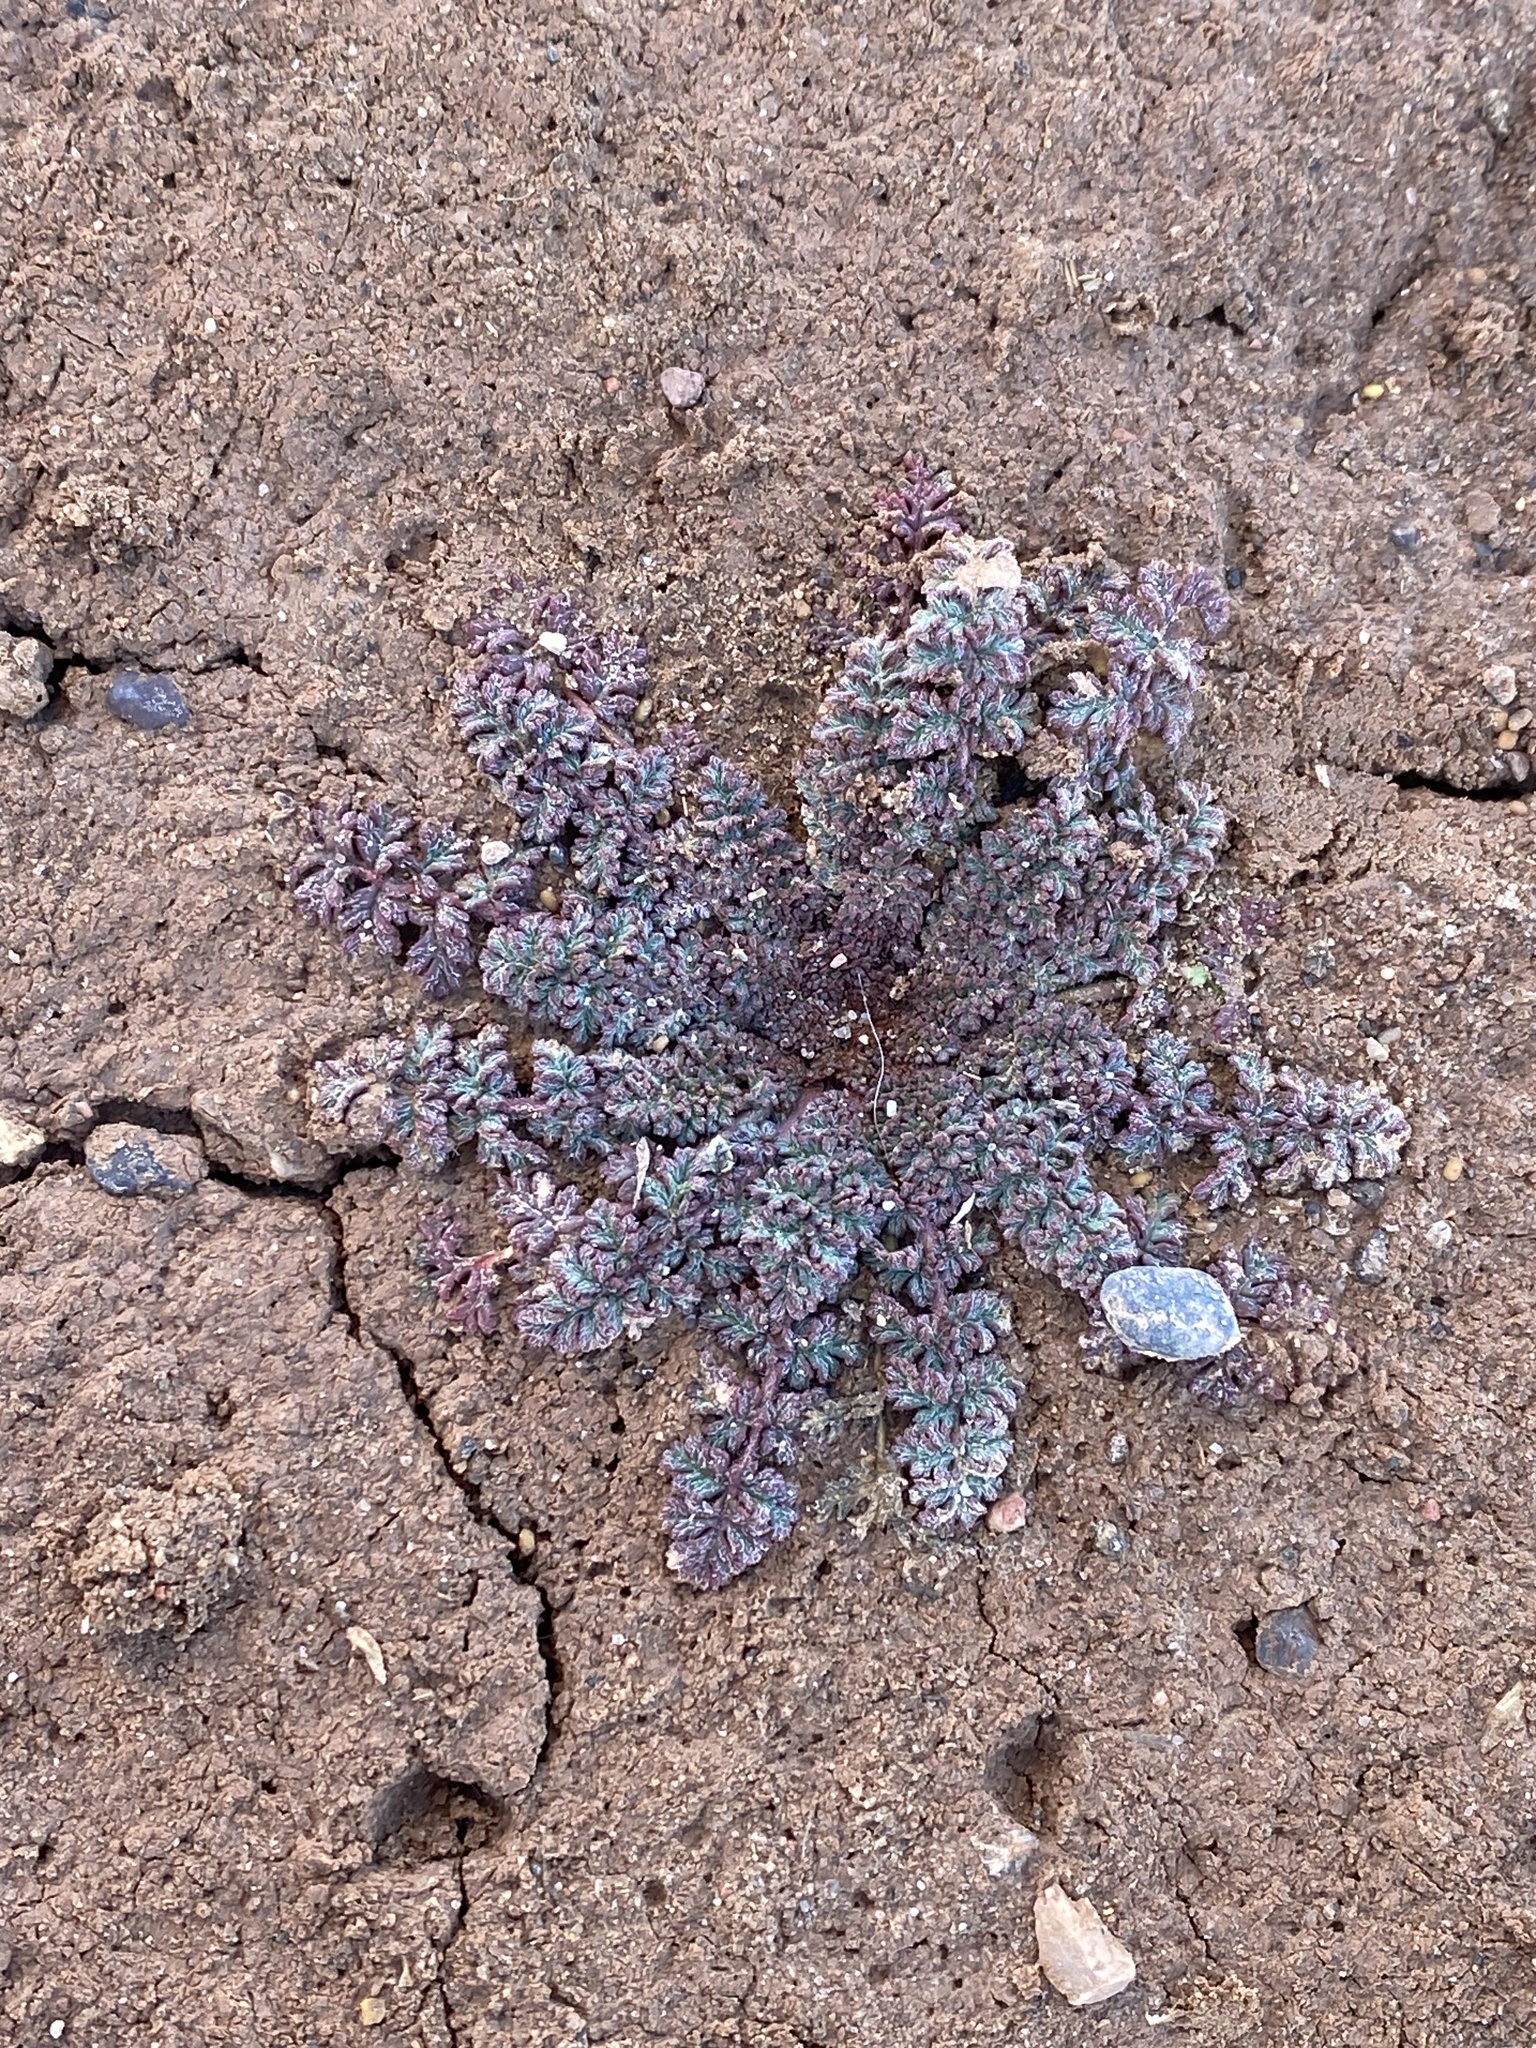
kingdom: Plantae
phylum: Tracheophyta
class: Magnoliopsida
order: Geraniales
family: Geraniaceae
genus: Erodium
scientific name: Erodium cicutarium
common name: Common stork's-bill
